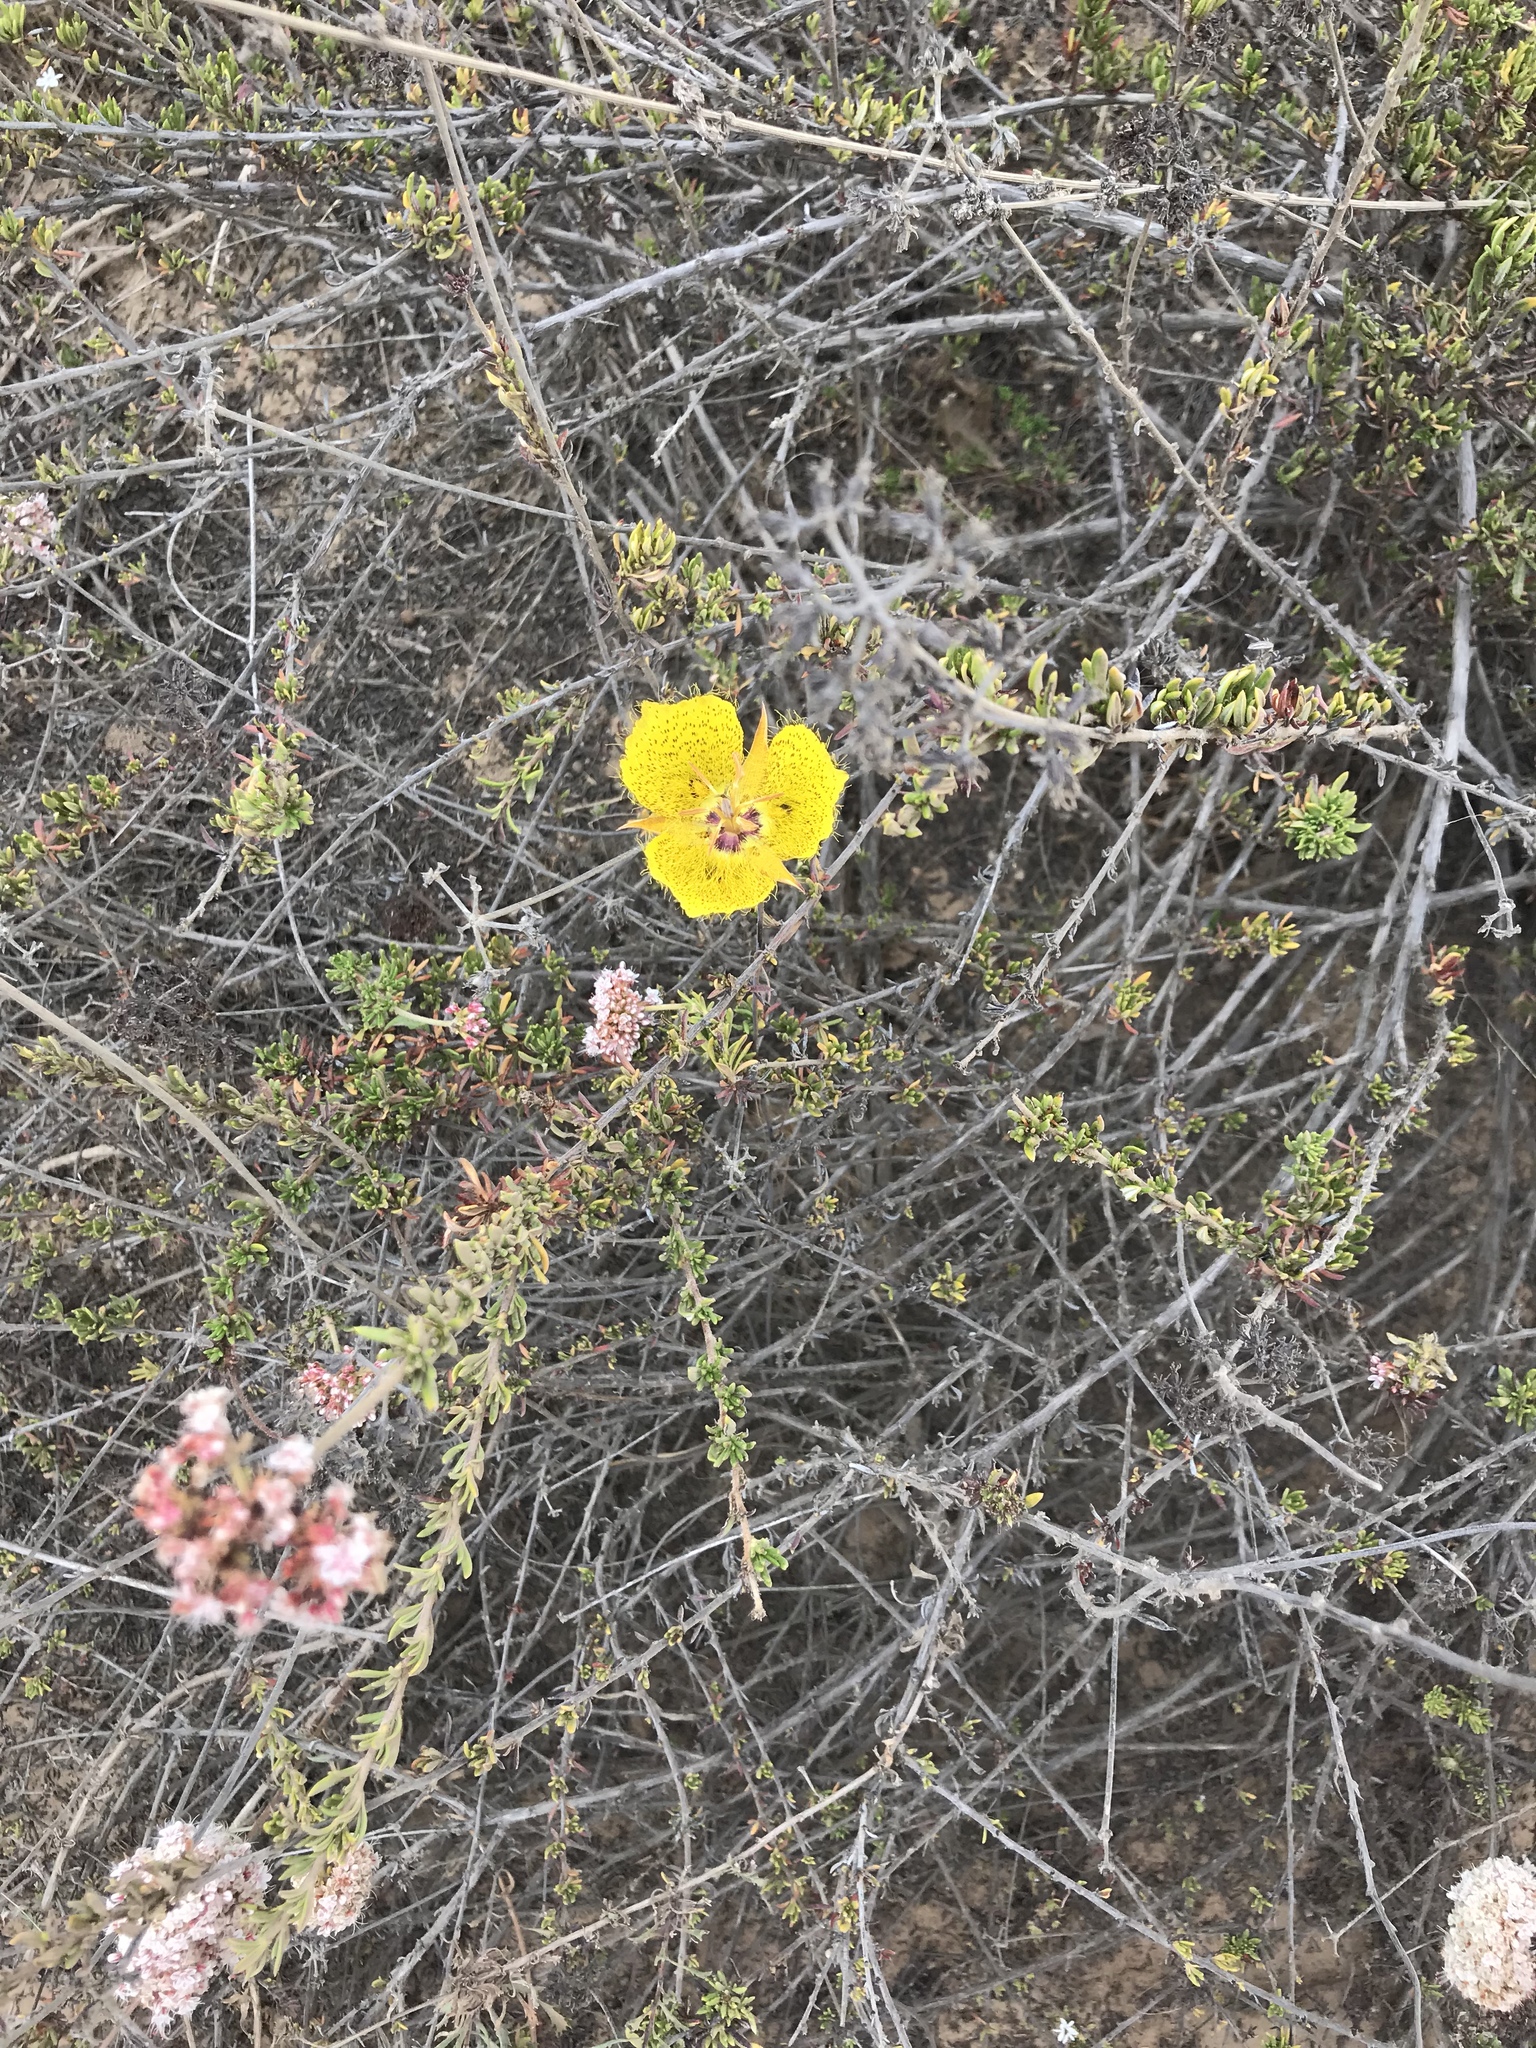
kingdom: Plantae
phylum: Tracheophyta
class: Liliopsida
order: Liliales
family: Liliaceae
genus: Calochortus
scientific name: Calochortus weedii
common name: Weed's mariposa-lily
